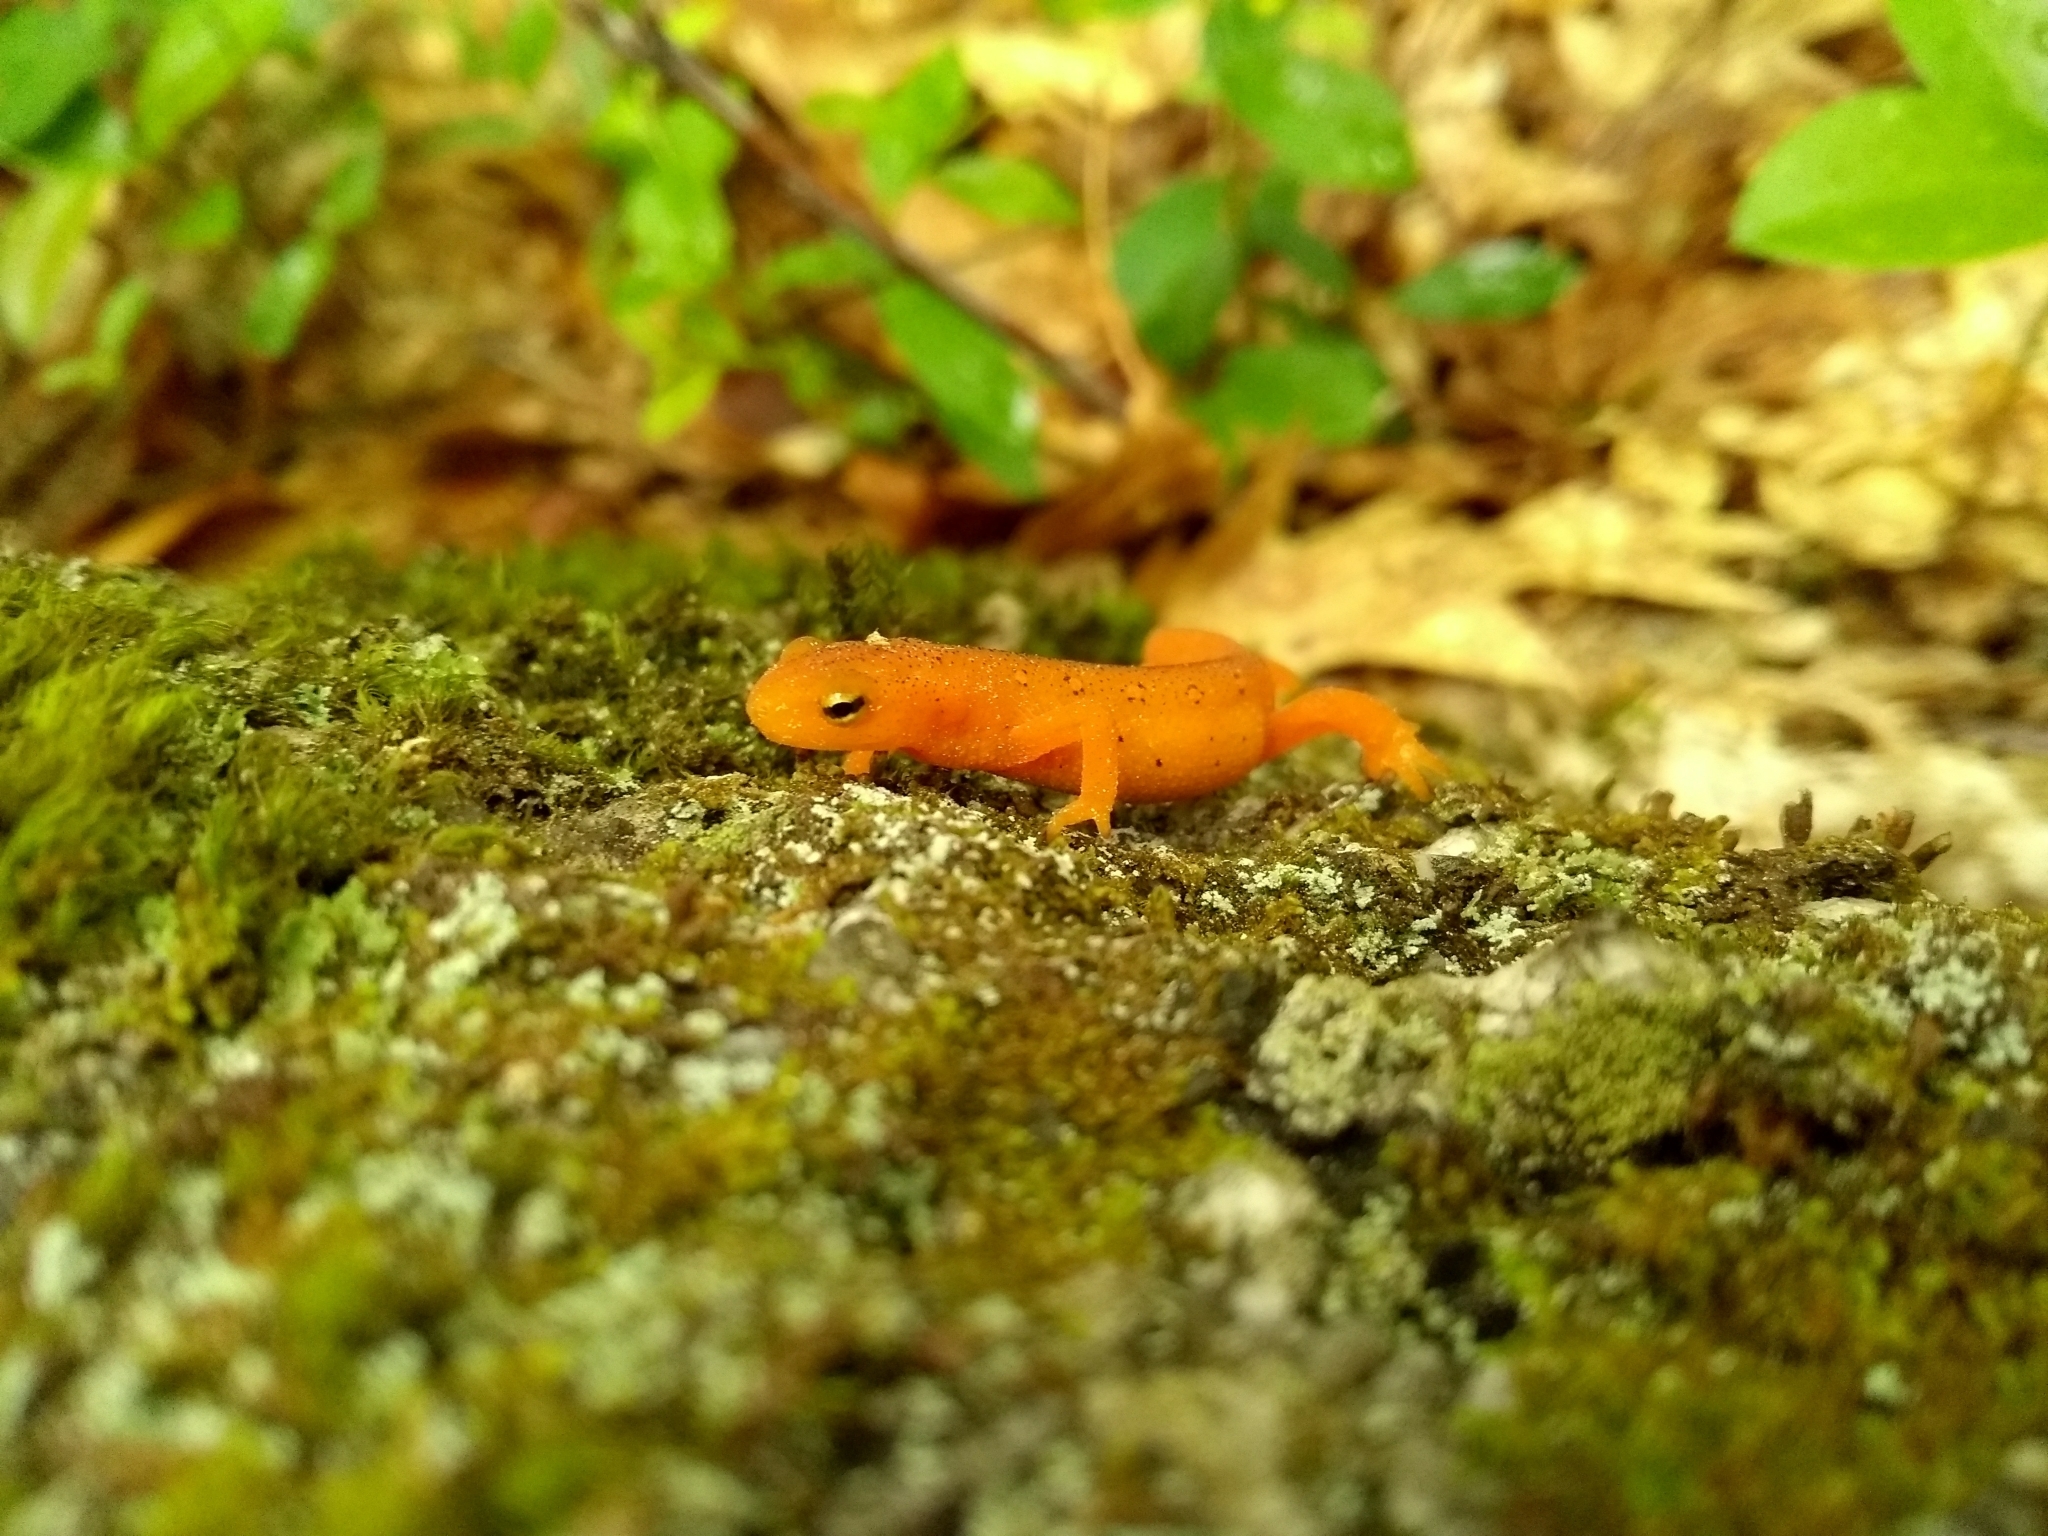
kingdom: Animalia
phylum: Chordata
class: Amphibia
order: Caudata
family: Salamandridae
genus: Notophthalmus
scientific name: Notophthalmus viridescens
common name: Eastern newt
